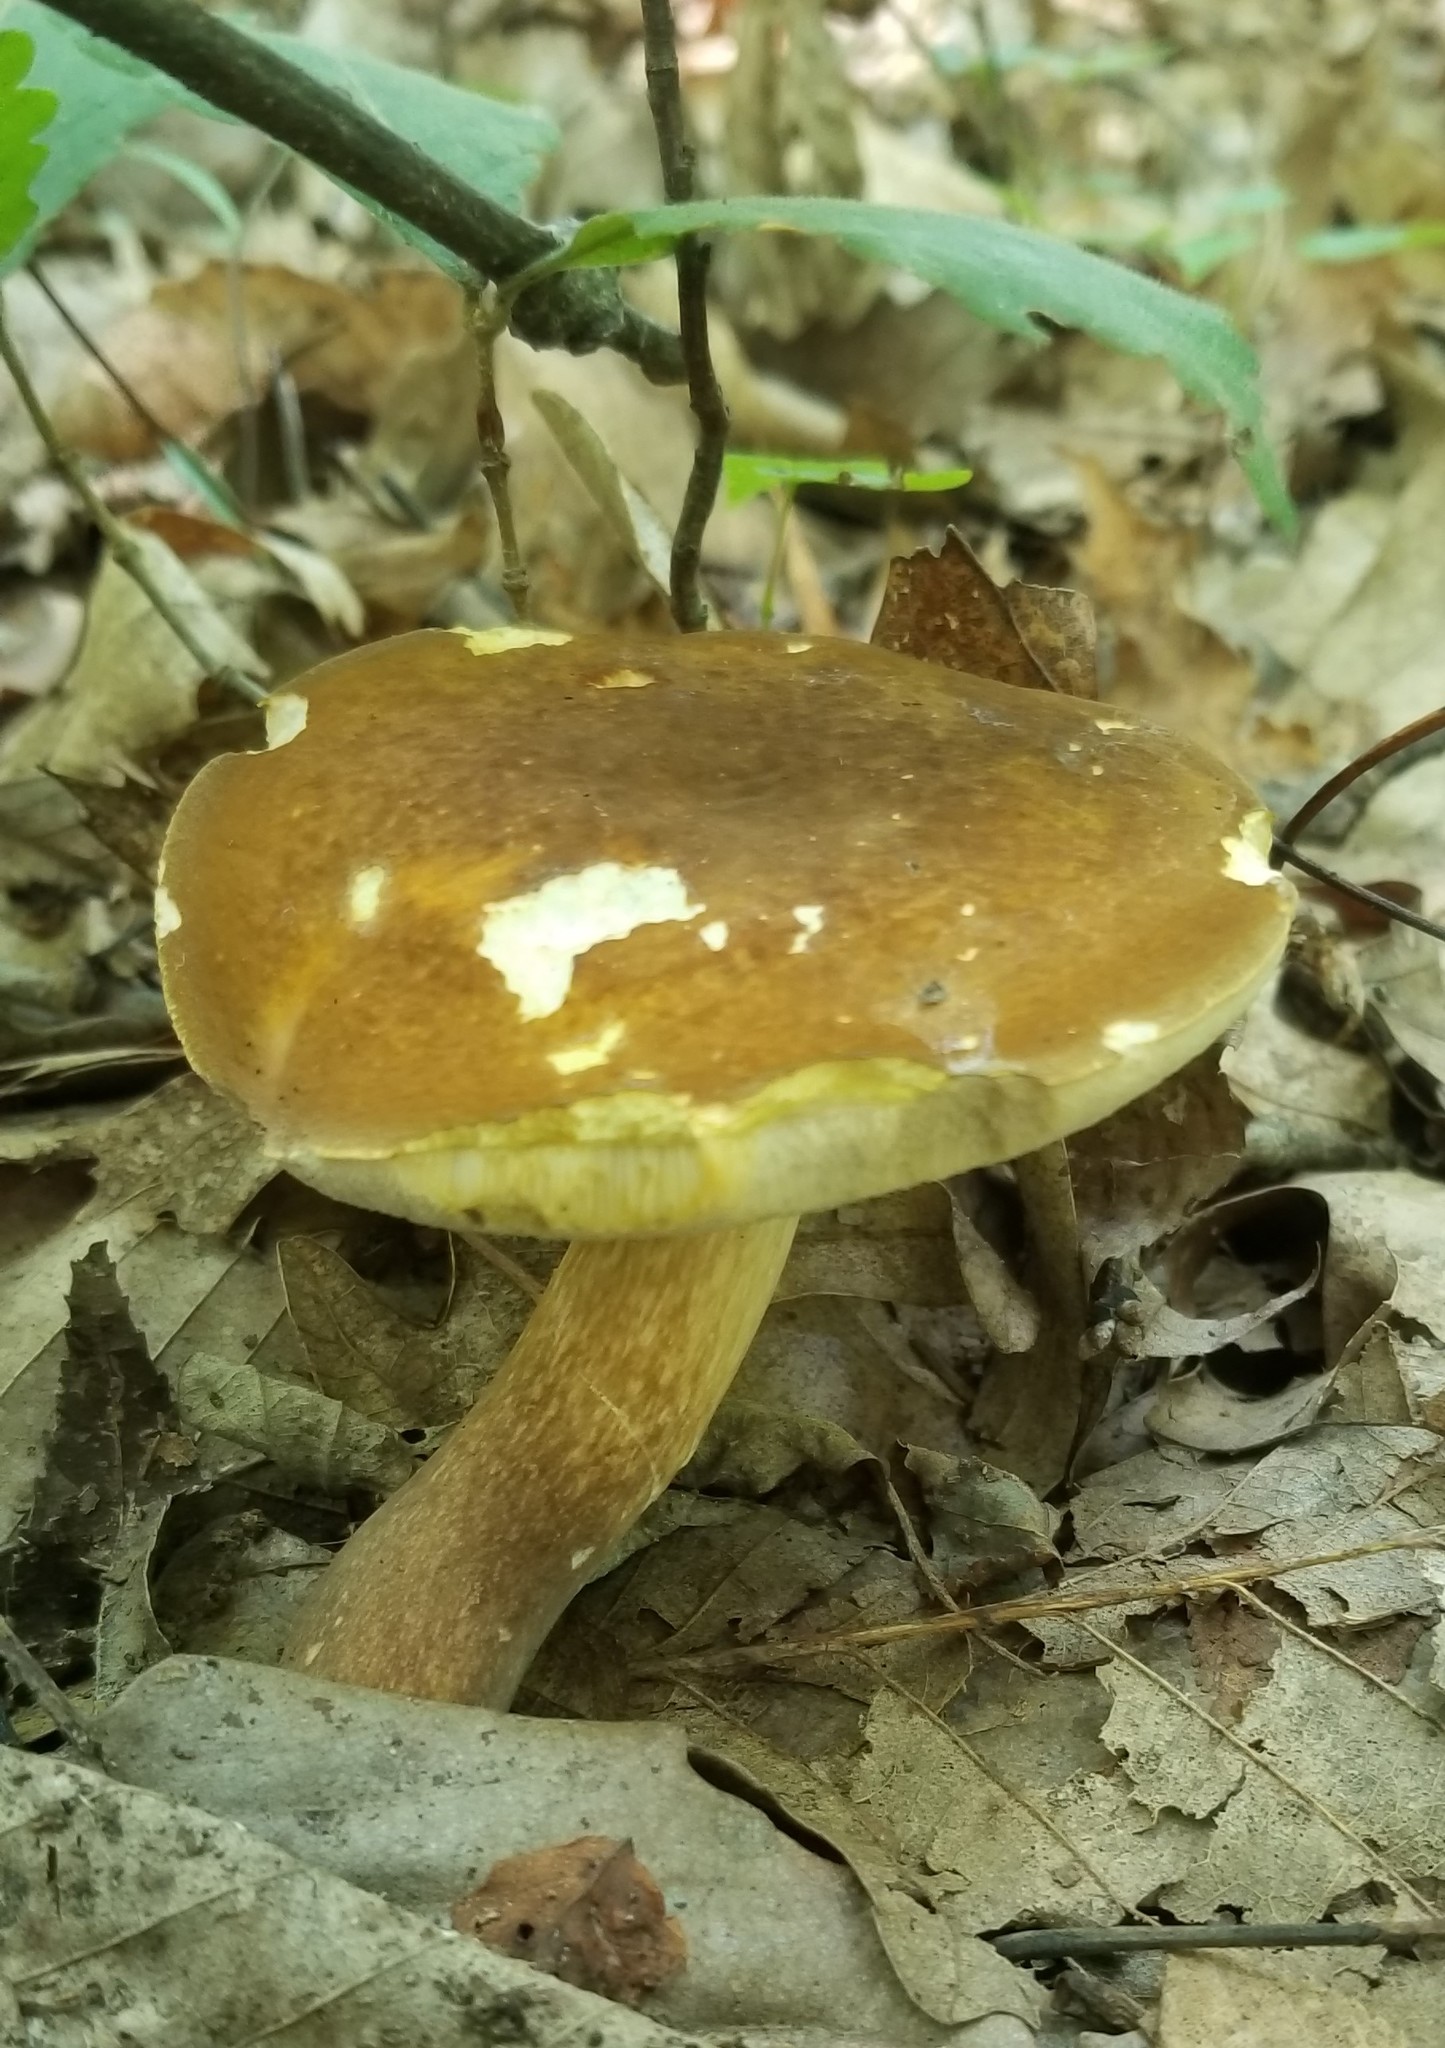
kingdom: Fungi
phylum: Basidiomycota
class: Agaricomycetes
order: Boletales
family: Boletaceae
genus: Xanthoconium
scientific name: Xanthoconium affine
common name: Spotted bolete
